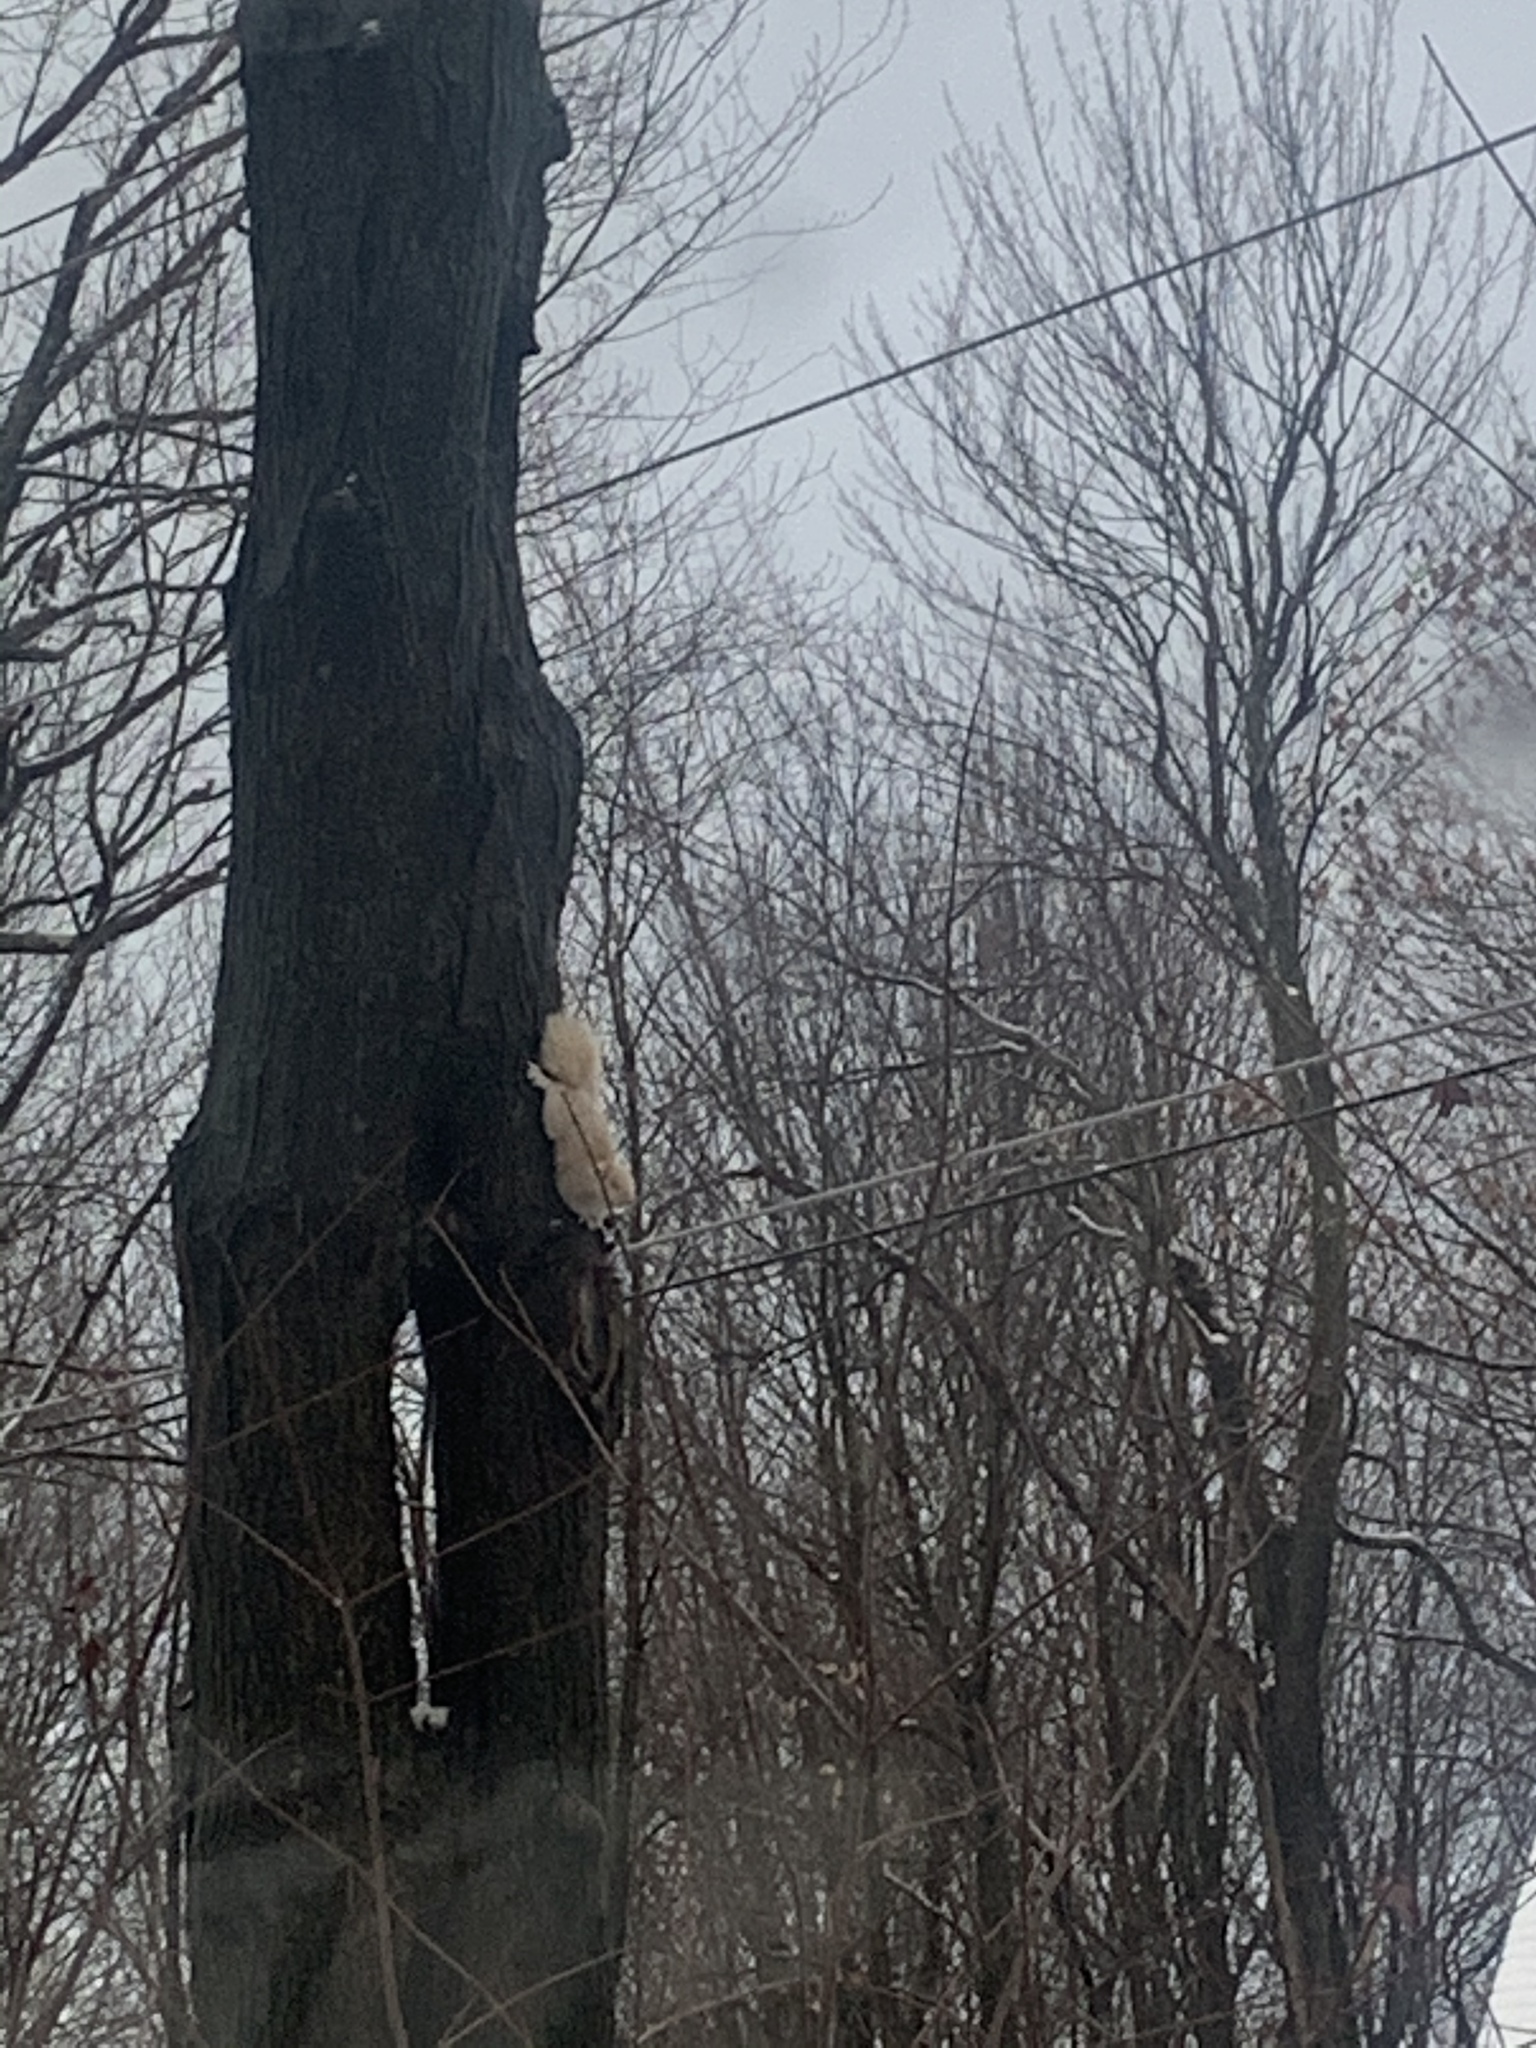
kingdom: Animalia
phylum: Chordata
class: Mammalia
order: Rodentia
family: Sciuridae
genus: Sciurus
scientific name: Sciurus carolinensis
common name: Eastern gray squirrel
